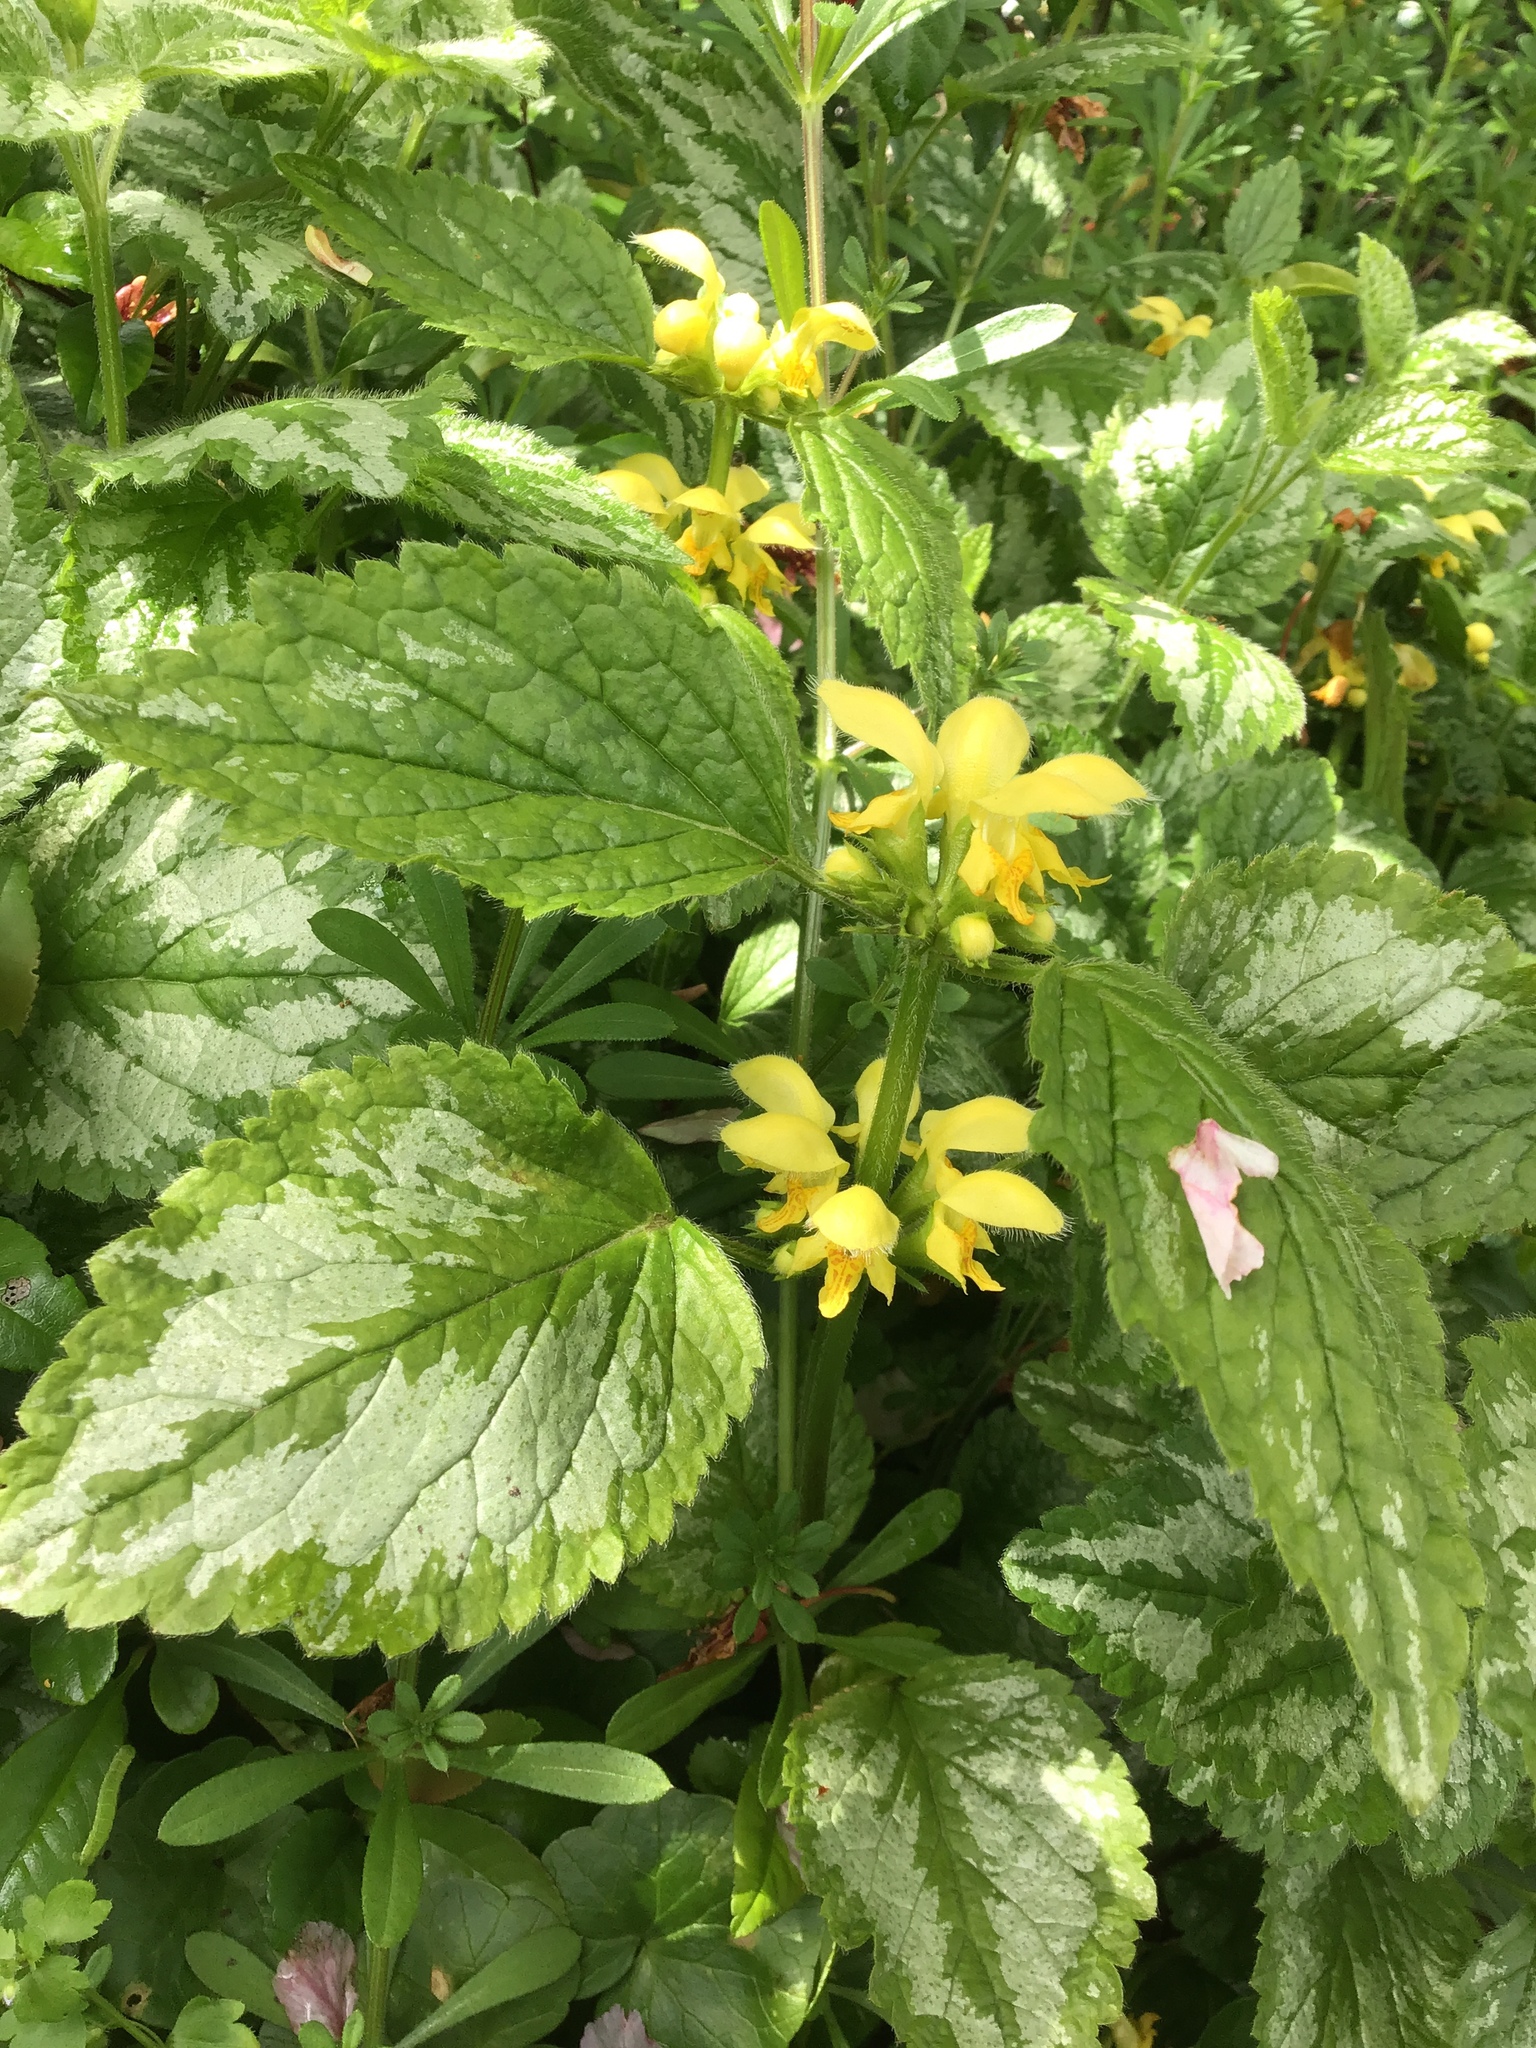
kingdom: Plantae
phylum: Tracheophyta
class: Magnoliopsida
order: Lamiales
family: Lamiaceae
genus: Lamium
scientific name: Lamium galeobdolon
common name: Yellow archangel
